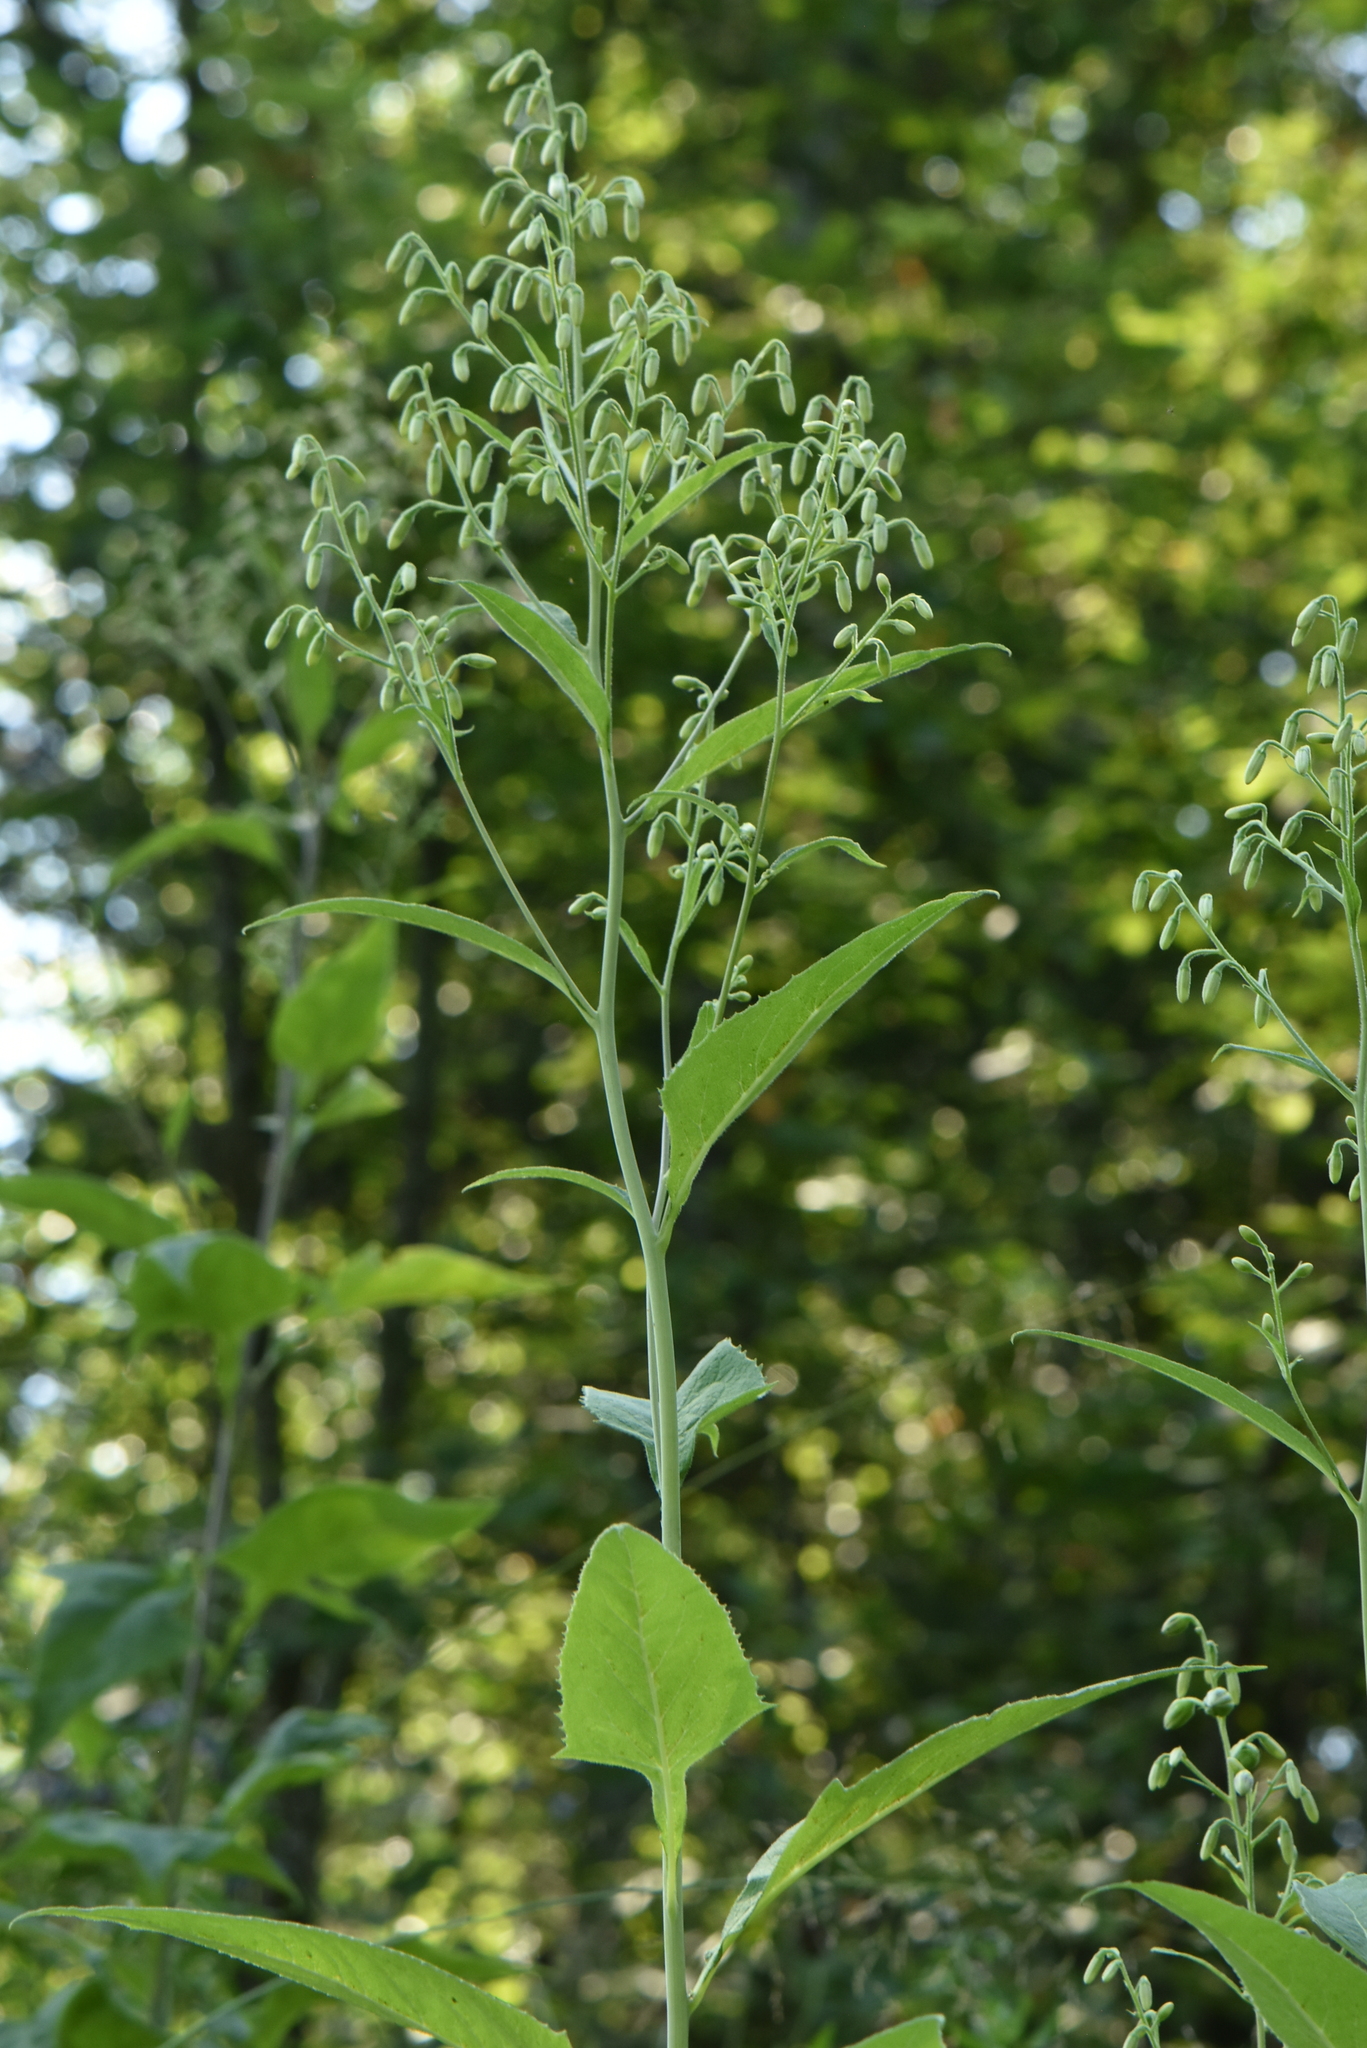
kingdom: Plantae
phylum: Tracheophyta
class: Magnoliopsida
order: Asterales
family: Asteraceae
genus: Parasenecio
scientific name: Parasenecio hastatus
